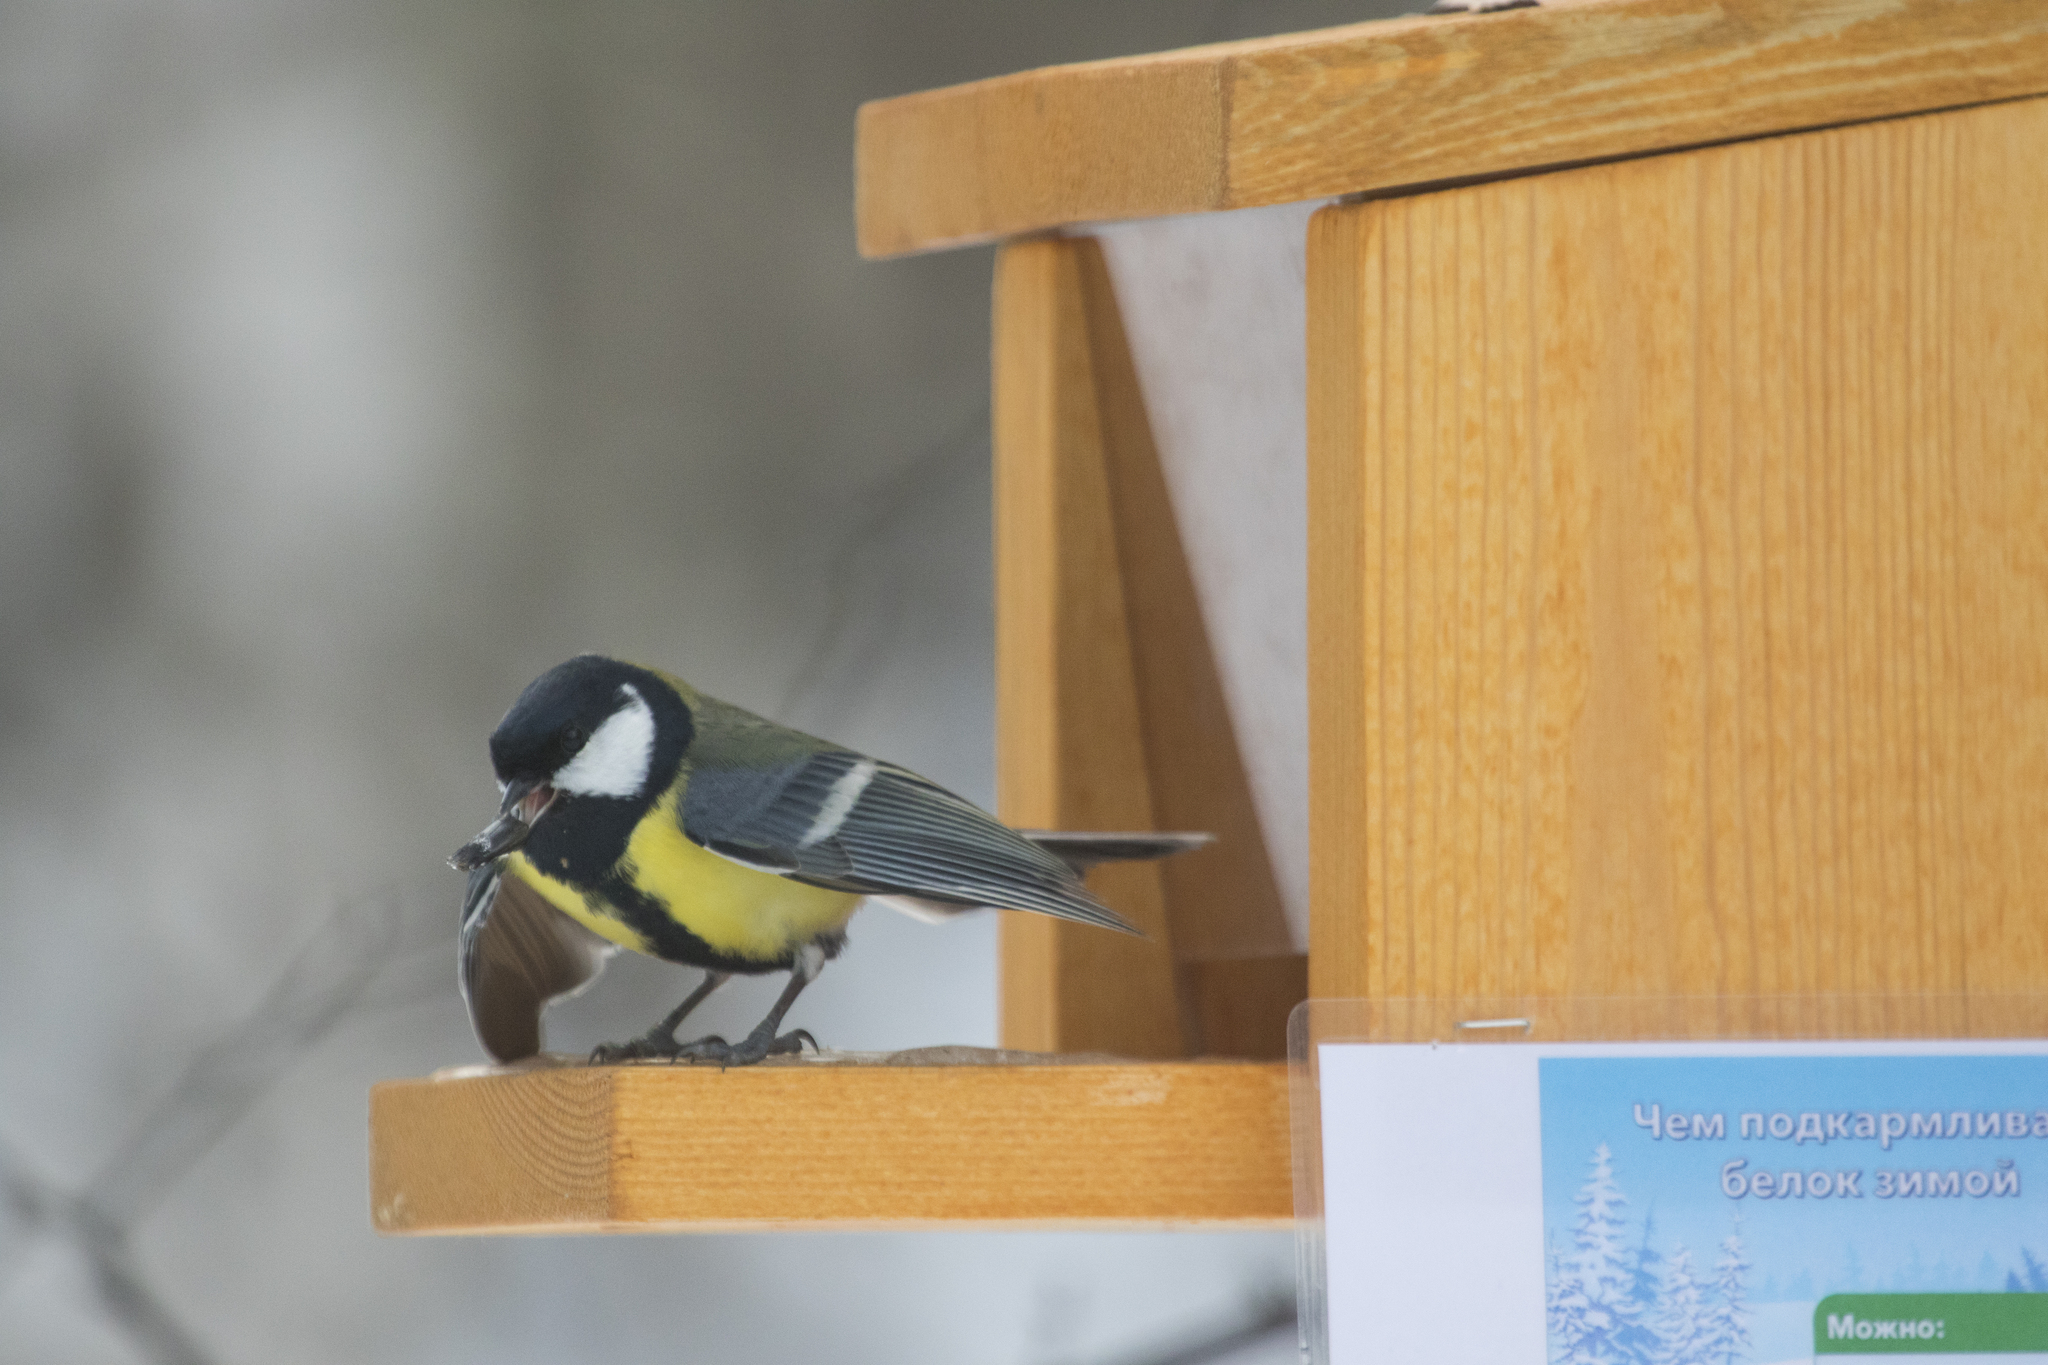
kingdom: Animalia
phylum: Chordata
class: Aves
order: Passeriformes
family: Paridae
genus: Parus
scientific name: Parus major
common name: Great tit
